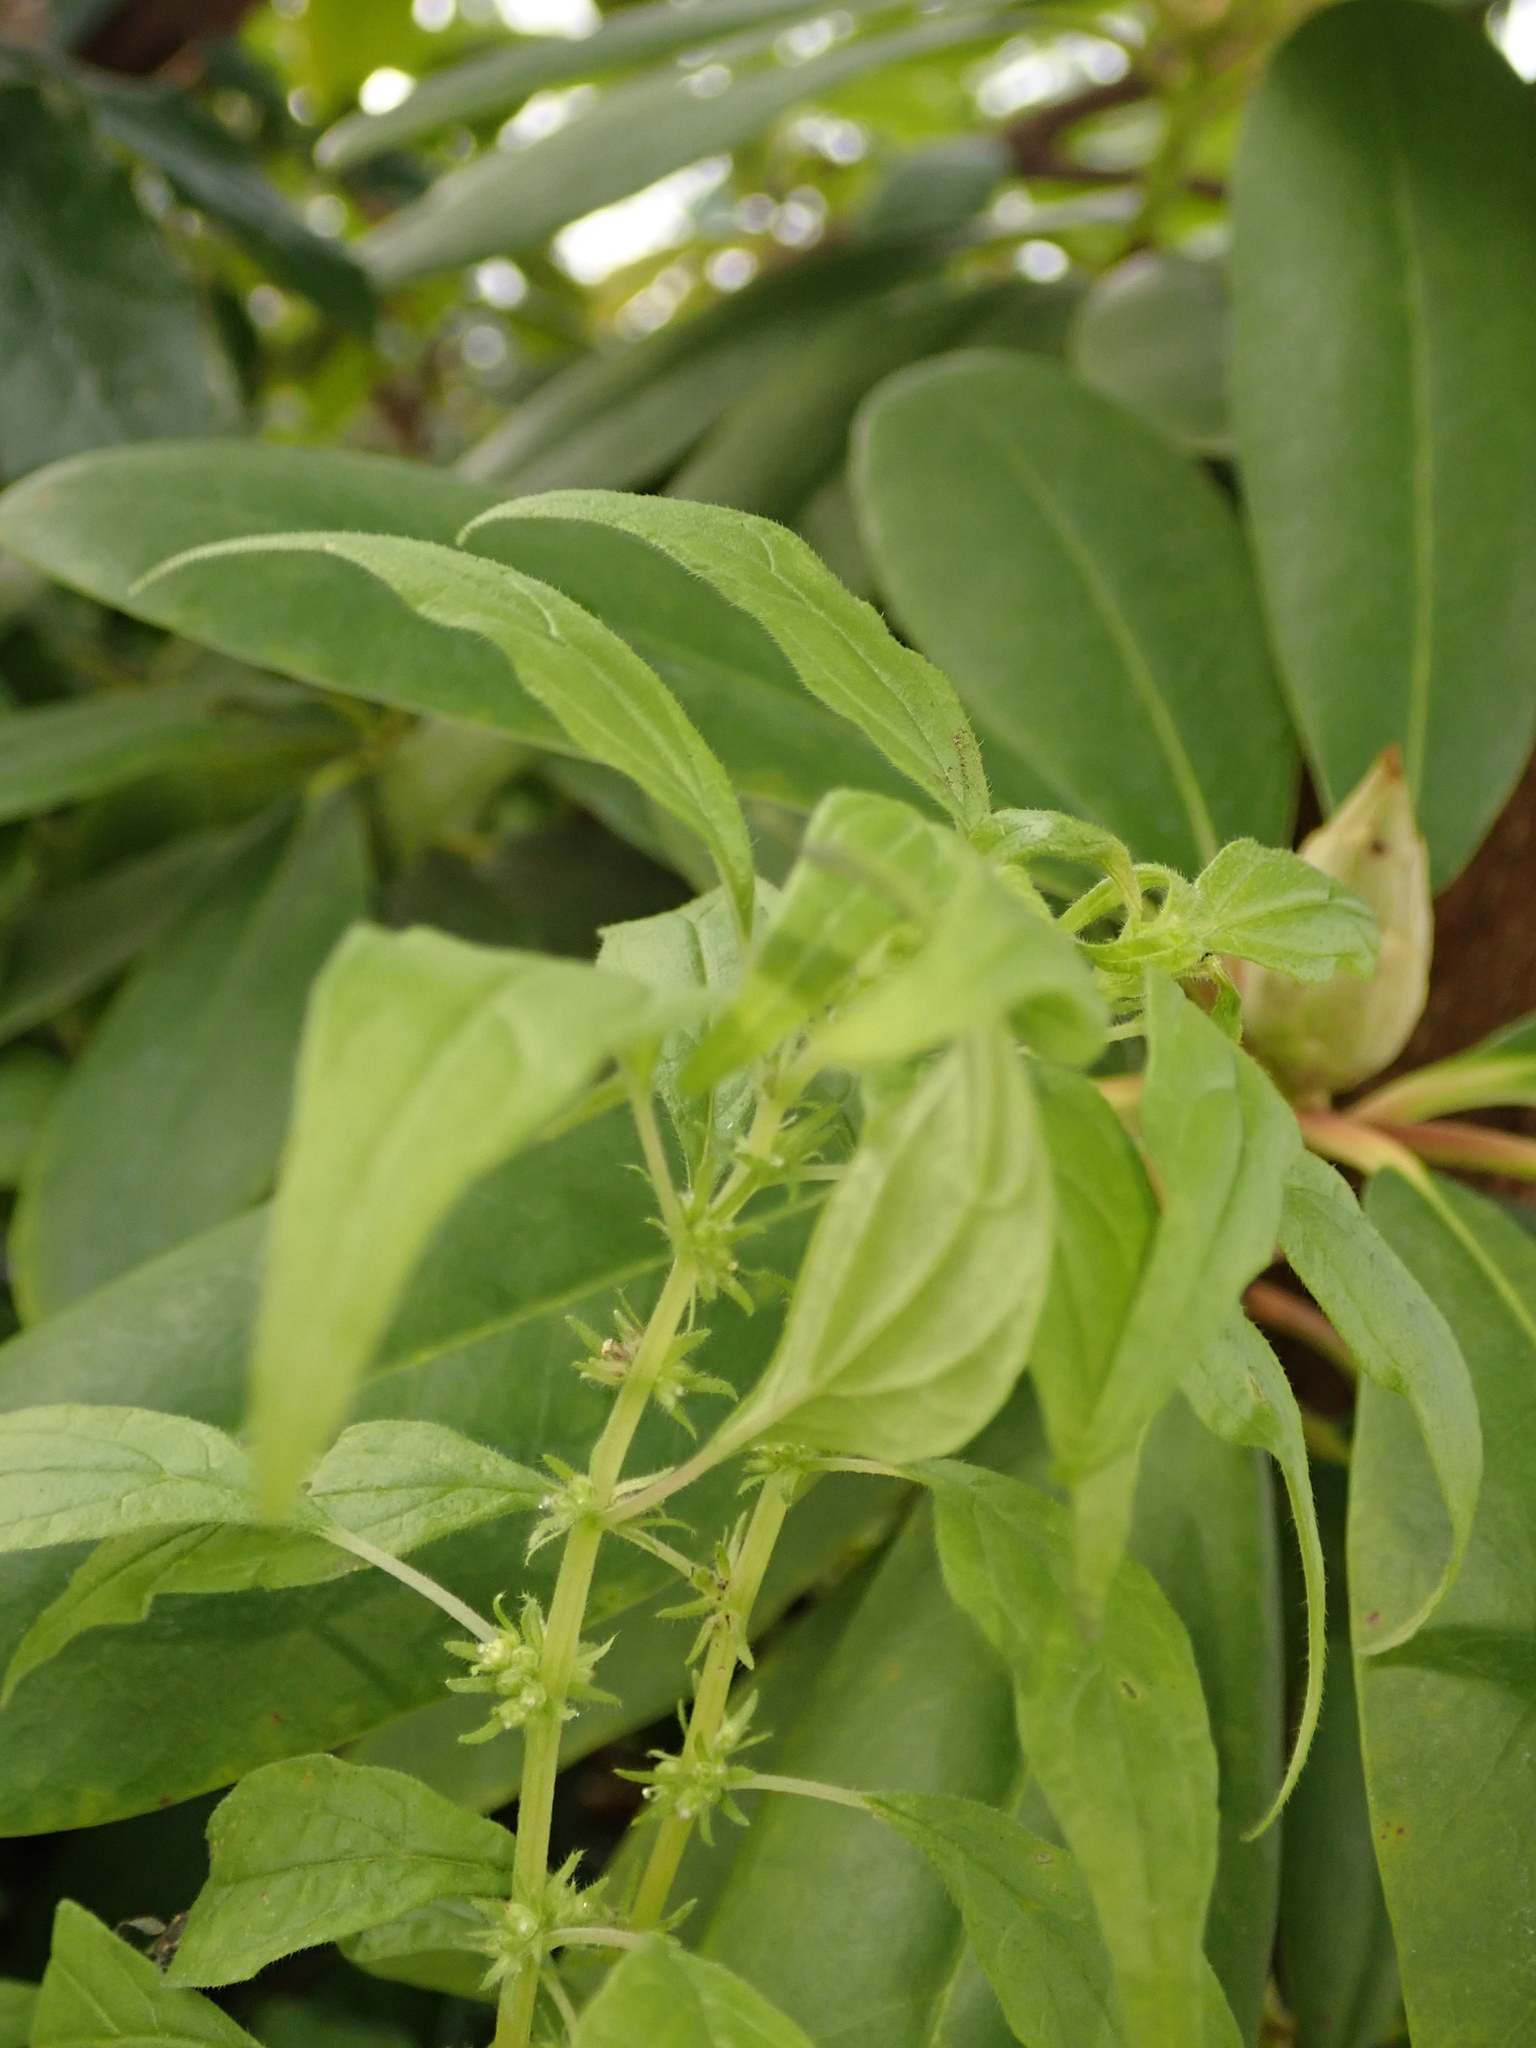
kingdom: Plantae
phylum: Tracheophyta
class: Magnoliopsida
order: Rosales
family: Urticaceae
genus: Parietaria
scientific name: Parietaria pensylvanica
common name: Pennsylvania pellitory
